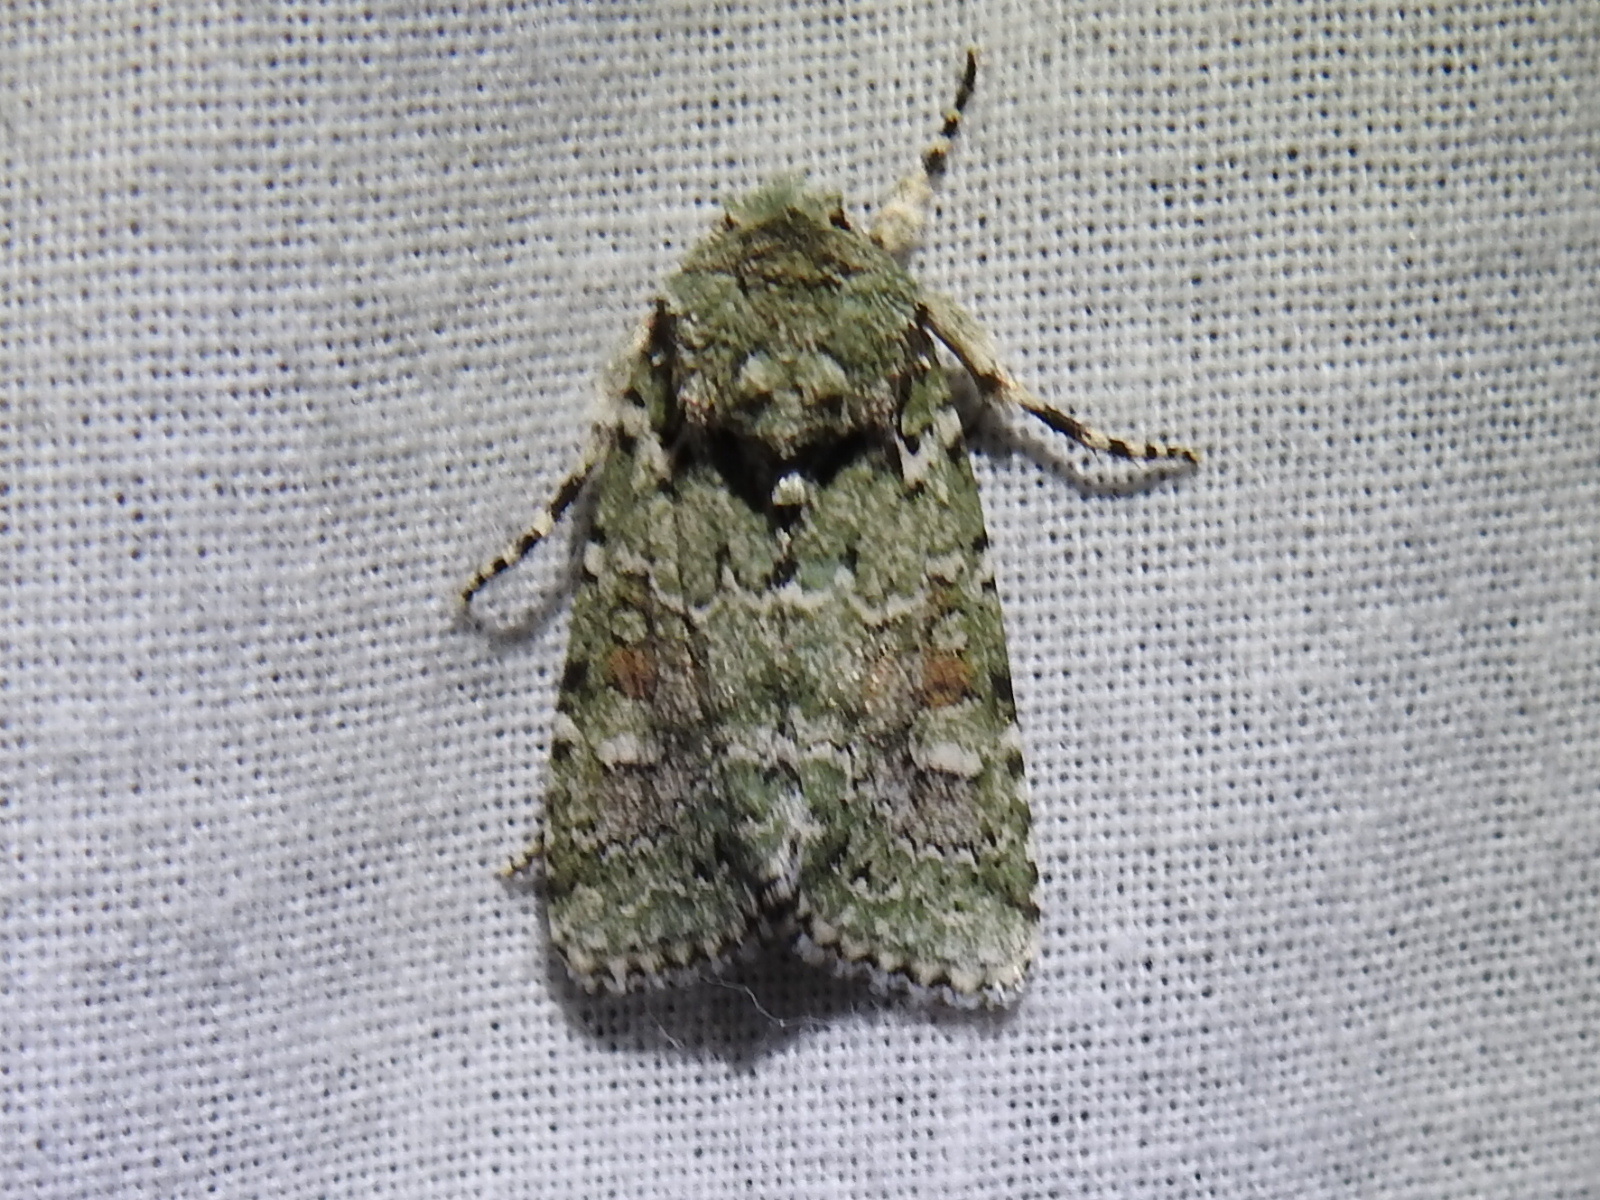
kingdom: Animalia
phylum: Arthropoda
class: Insecta
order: Lepidoptera
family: Noctuidae
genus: Lacinipolia
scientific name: Lacinipolia laudabilis
